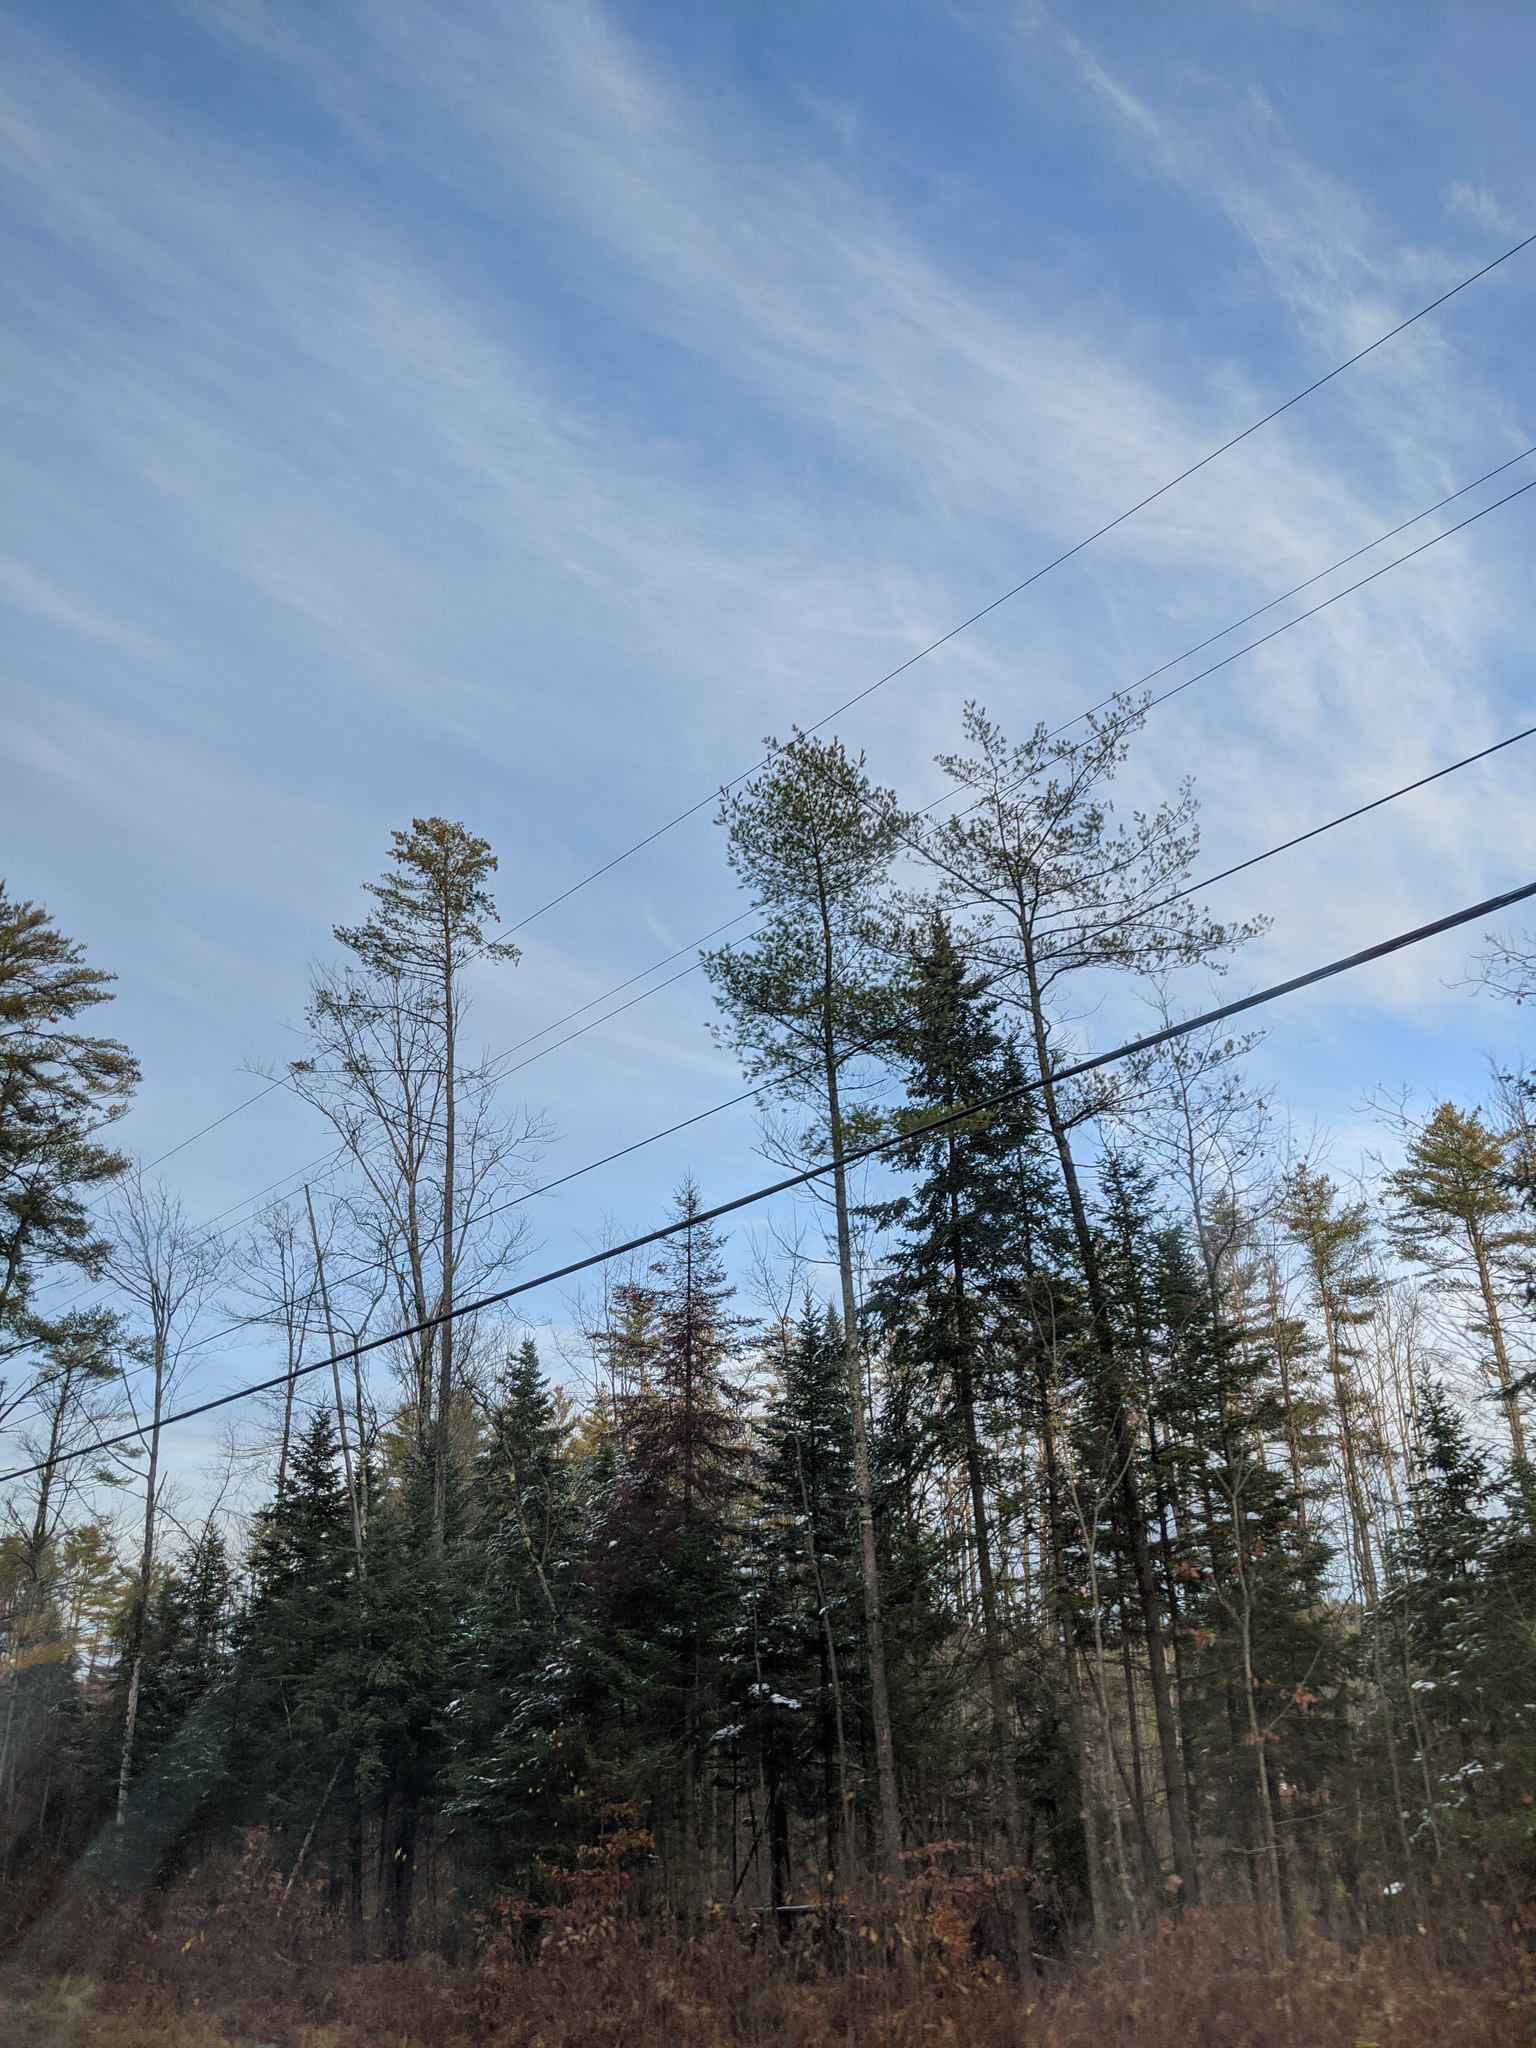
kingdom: Plantae
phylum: Tracheophyta
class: Pinopsida
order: Pinales
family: Pinaceae
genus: Pinus
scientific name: Pinus strobus
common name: Weymouth pine
